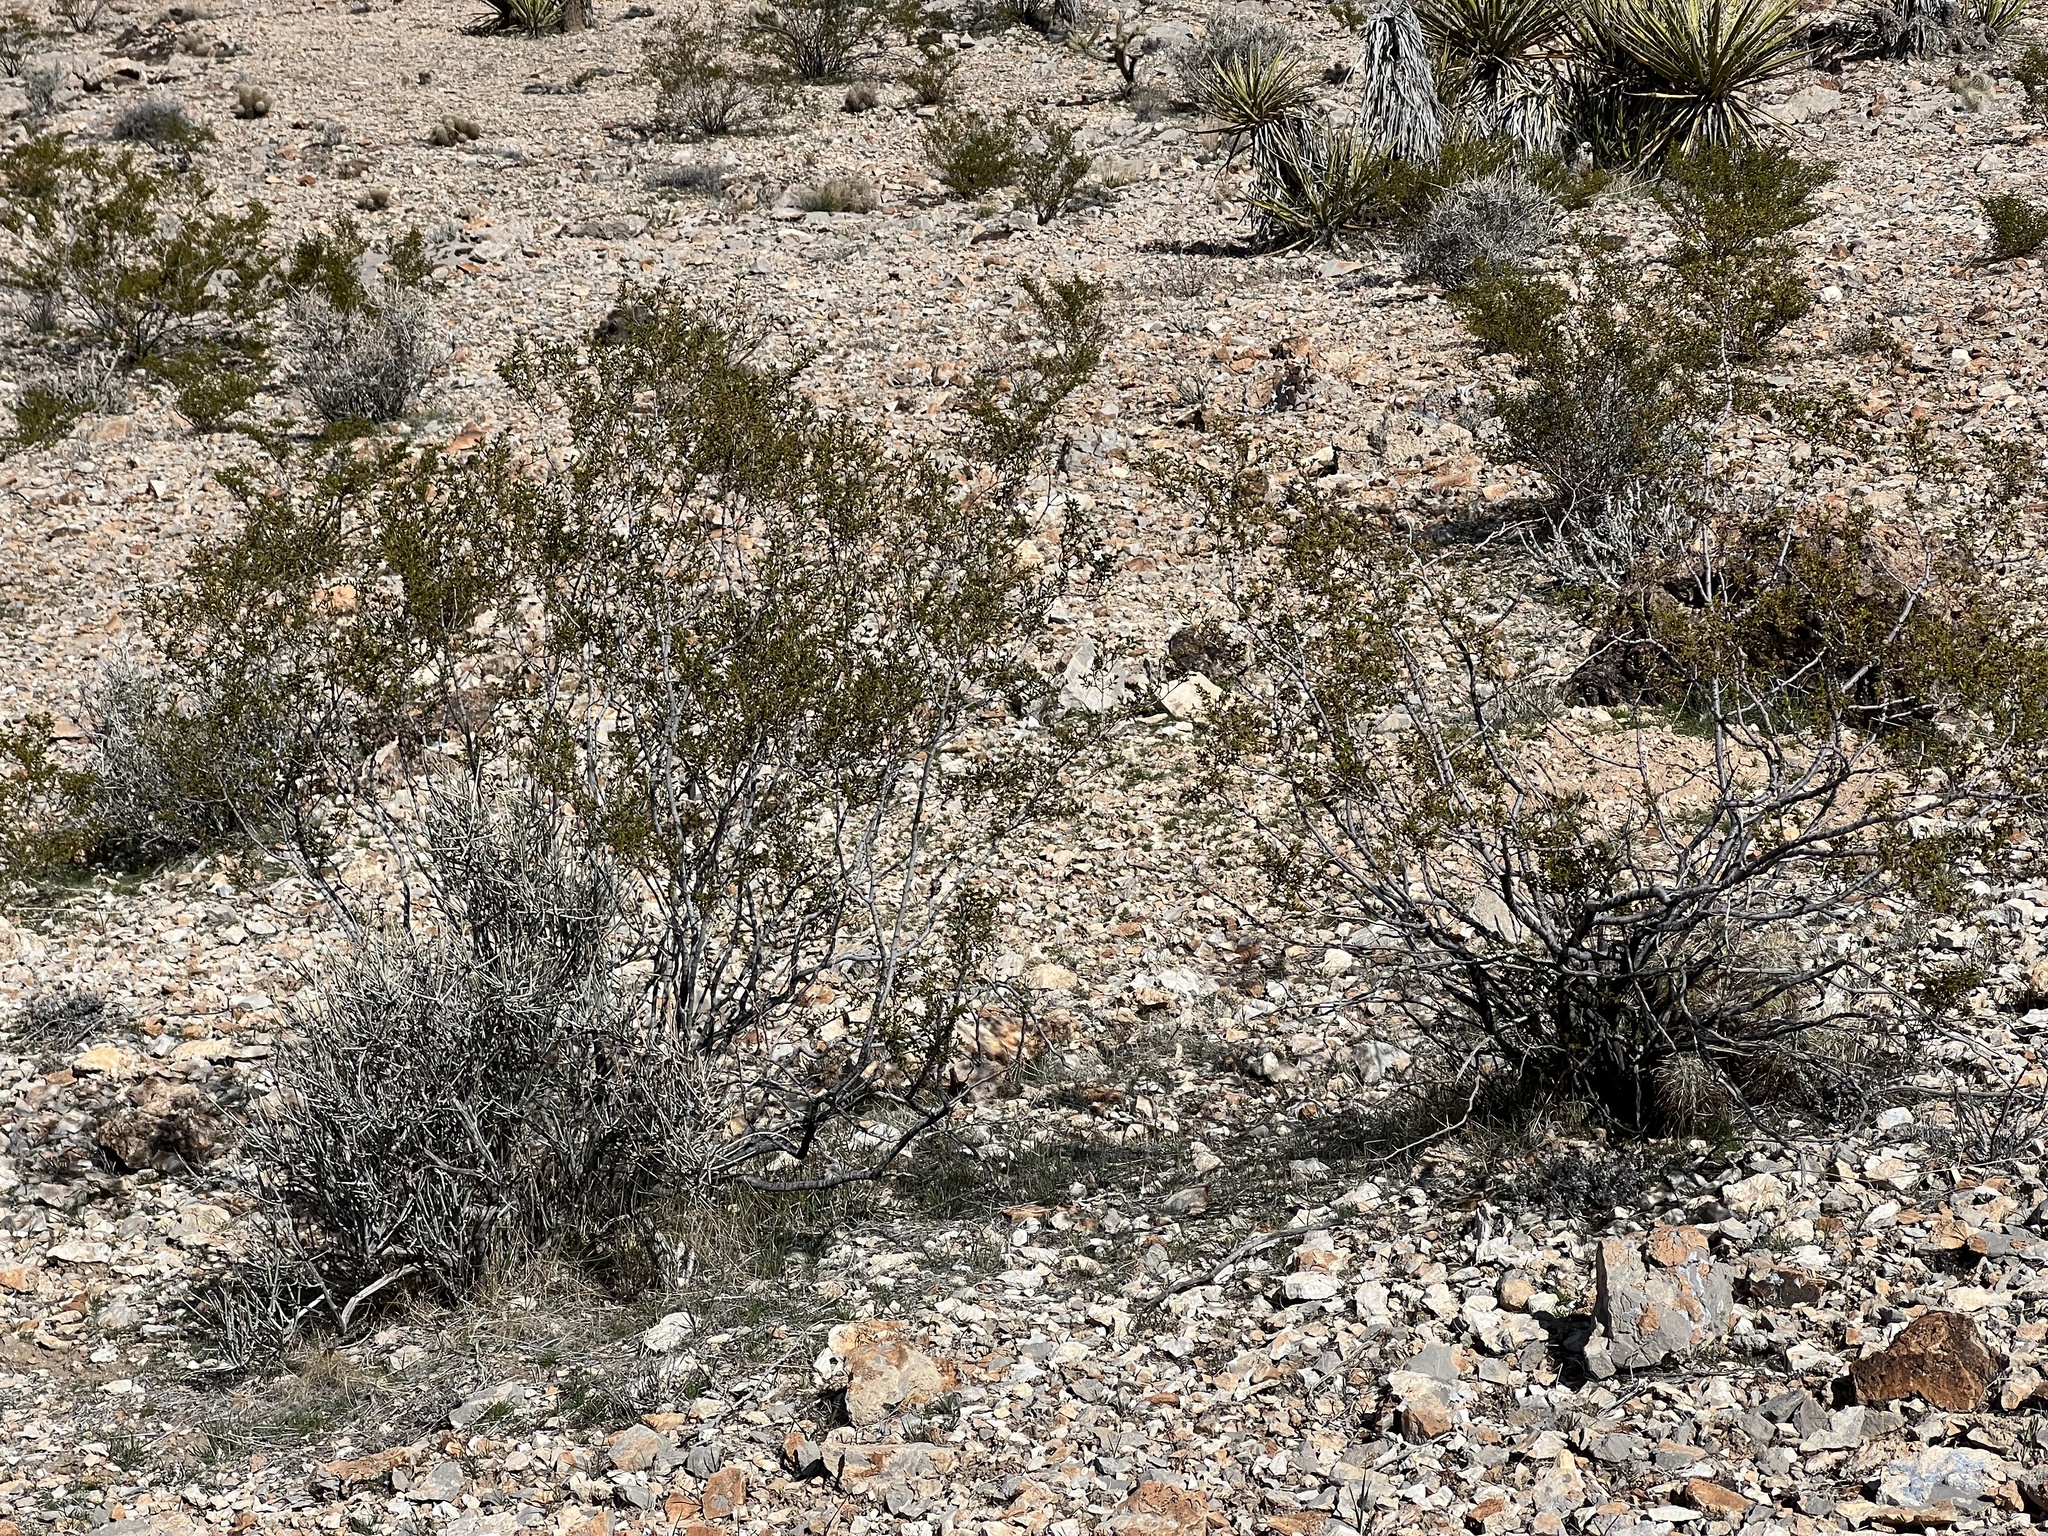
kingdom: Plantae
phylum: Tracheophyta
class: Magnoliopsida
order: Zygophyllales
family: Zygophyllaceae
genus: Larrea
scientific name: Larrea tridentata
